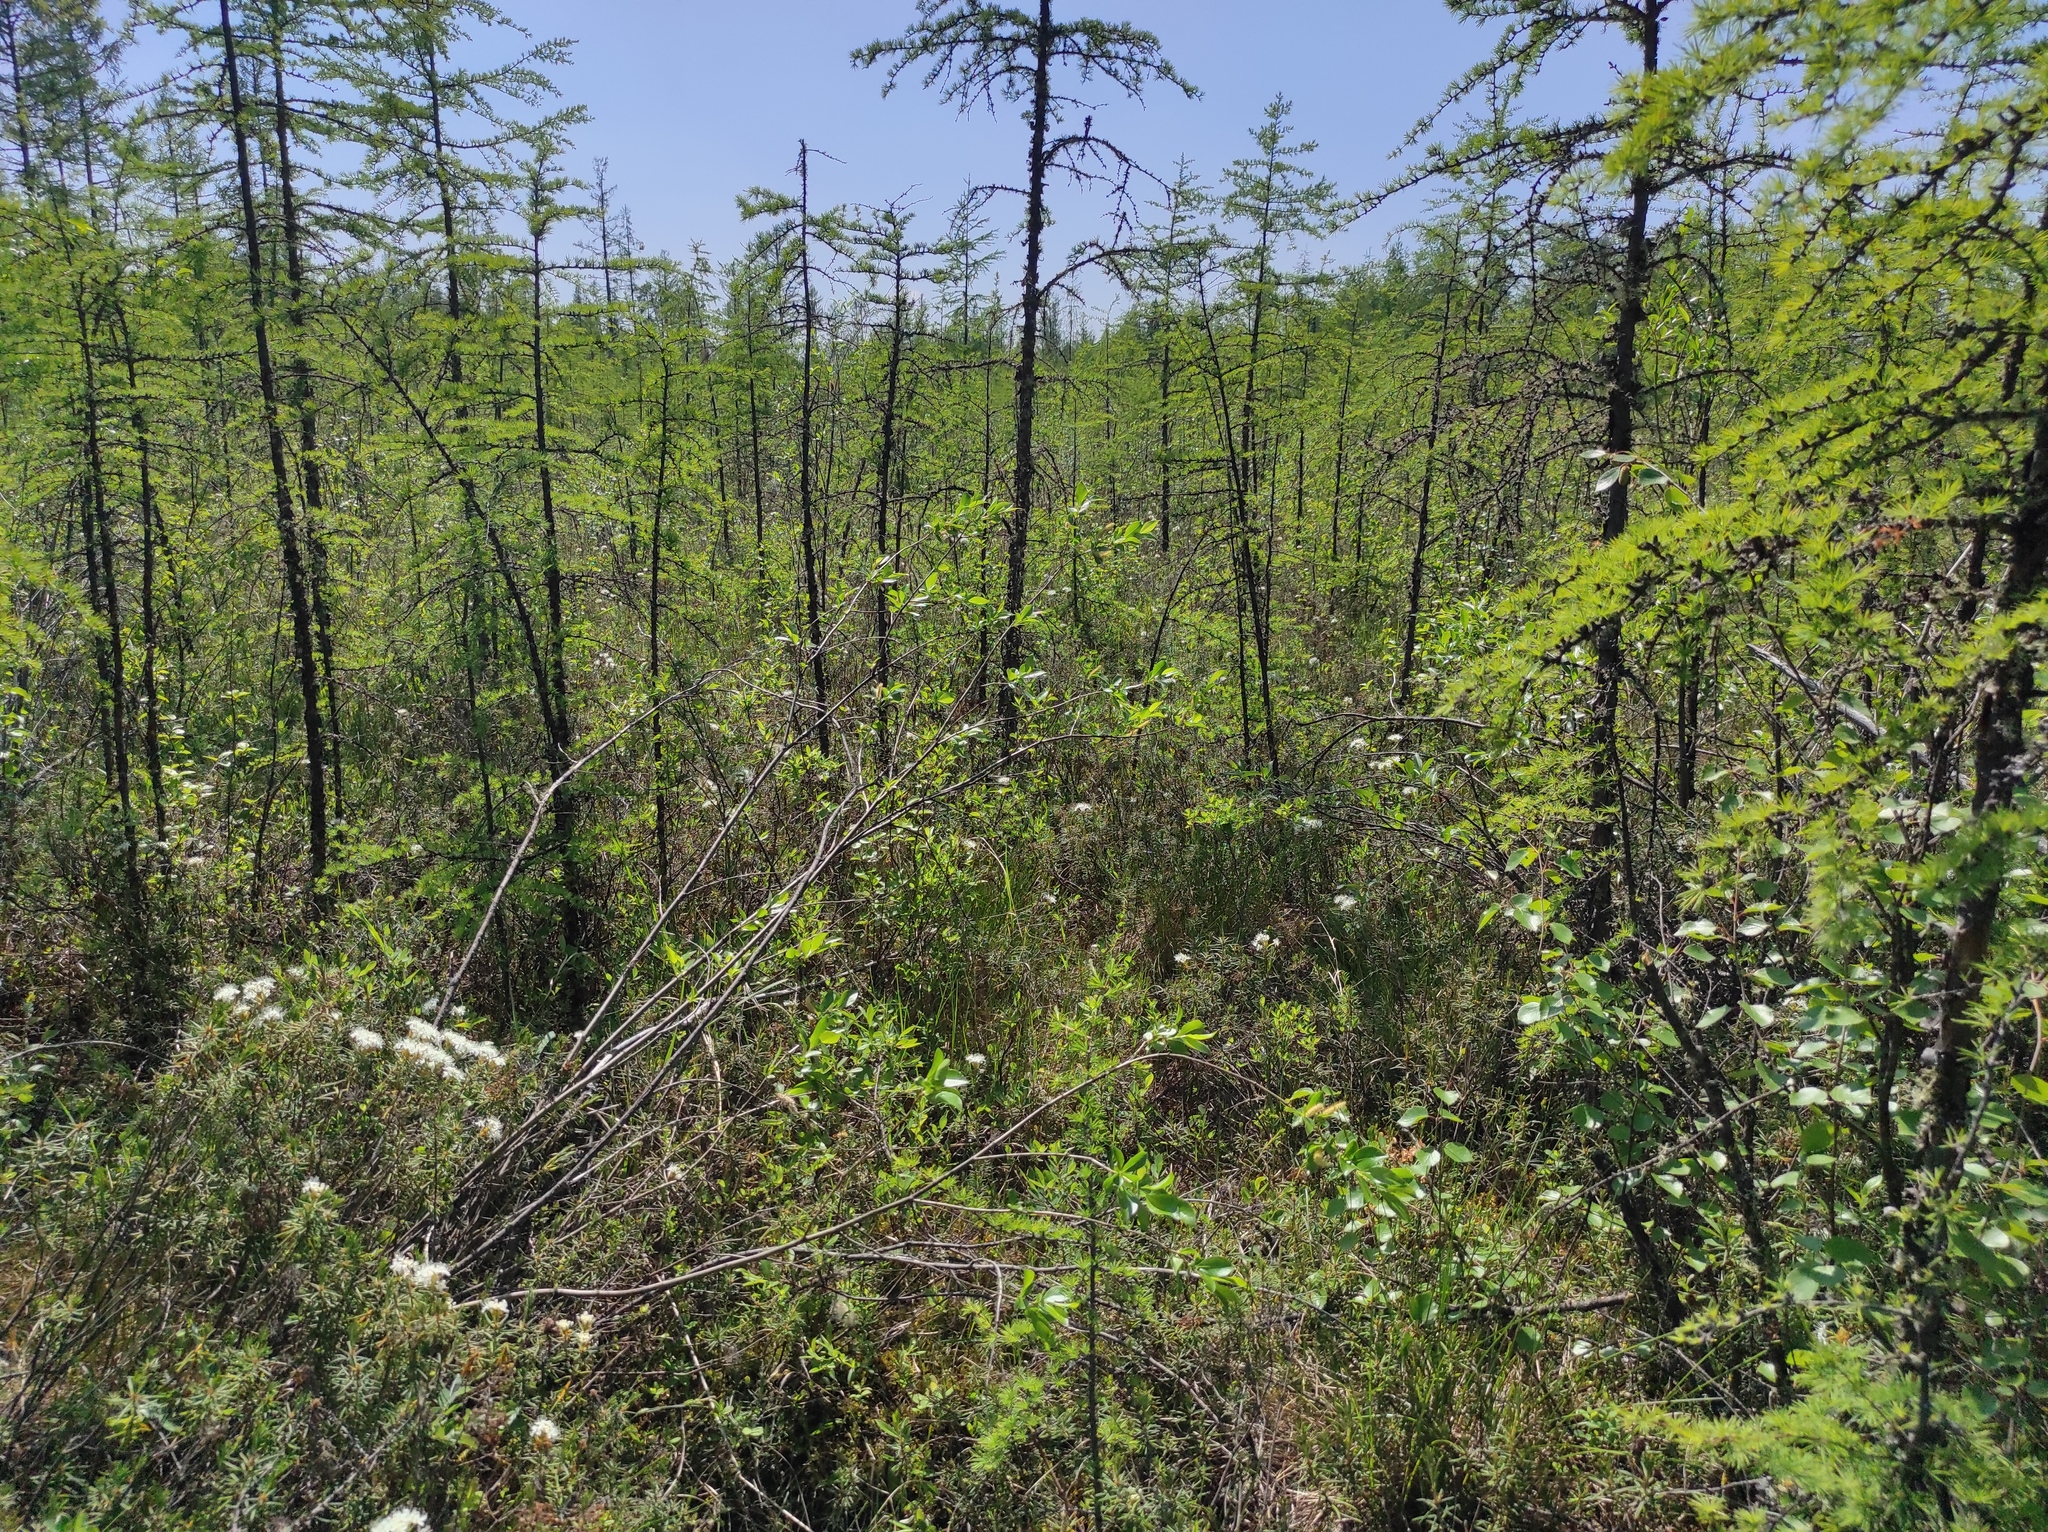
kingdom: Plantae
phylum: Tracheophyta
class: Pinopsida
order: Pinales
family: Pinaceae
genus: Larix
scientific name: Larix gmelinii
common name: Dahurian larch
